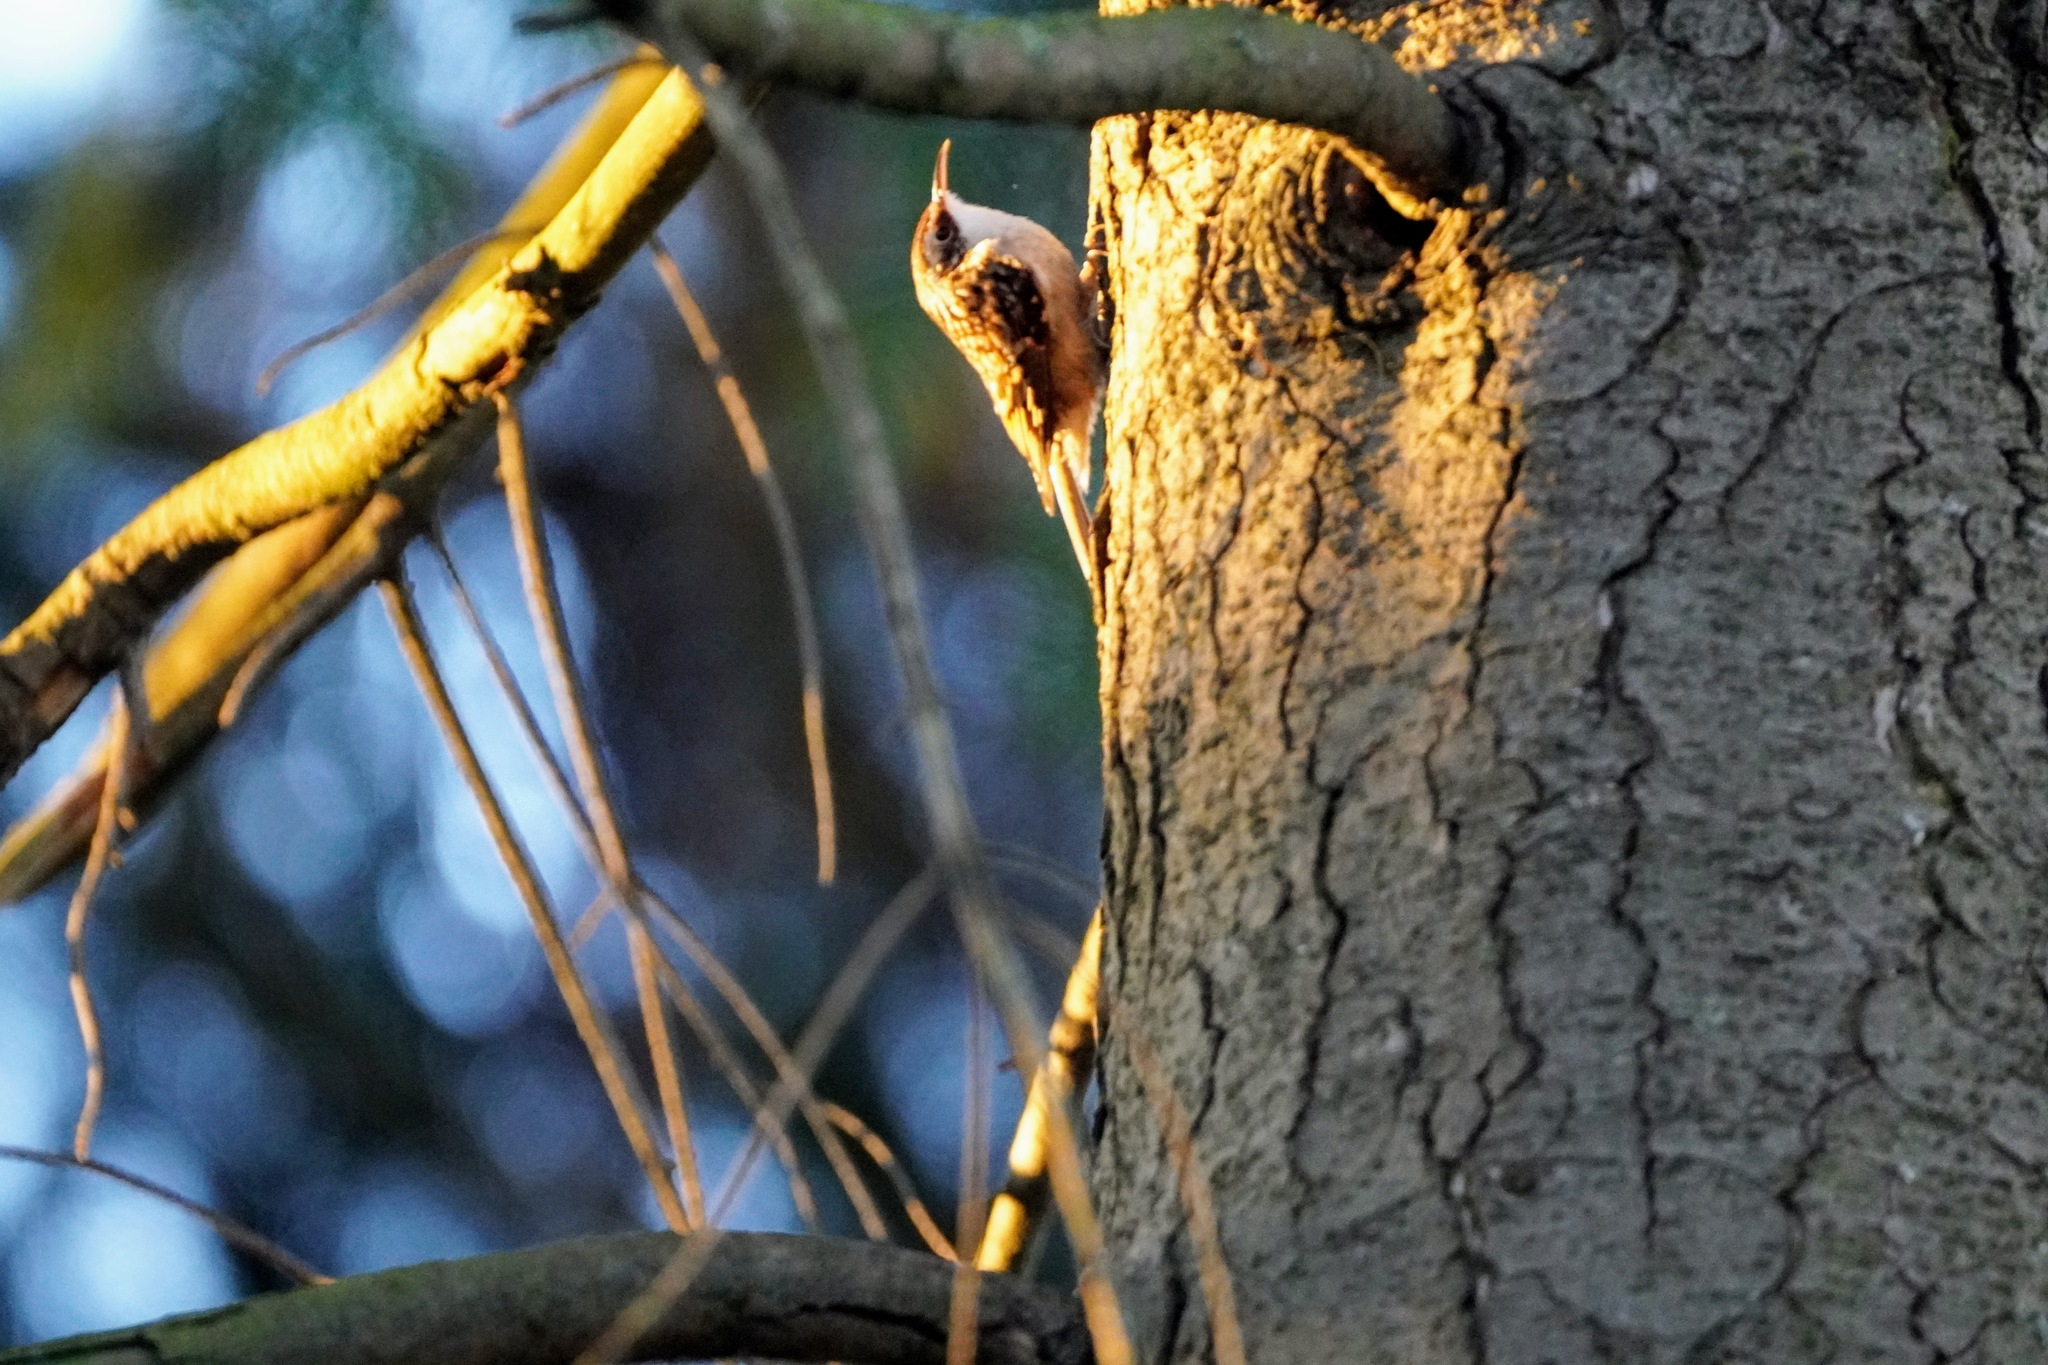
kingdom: Animalia
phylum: Chordata
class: Aves
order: Passeriformes
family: Certhiidae
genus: Certhia
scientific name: Certhia americana
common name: Brown creeper
